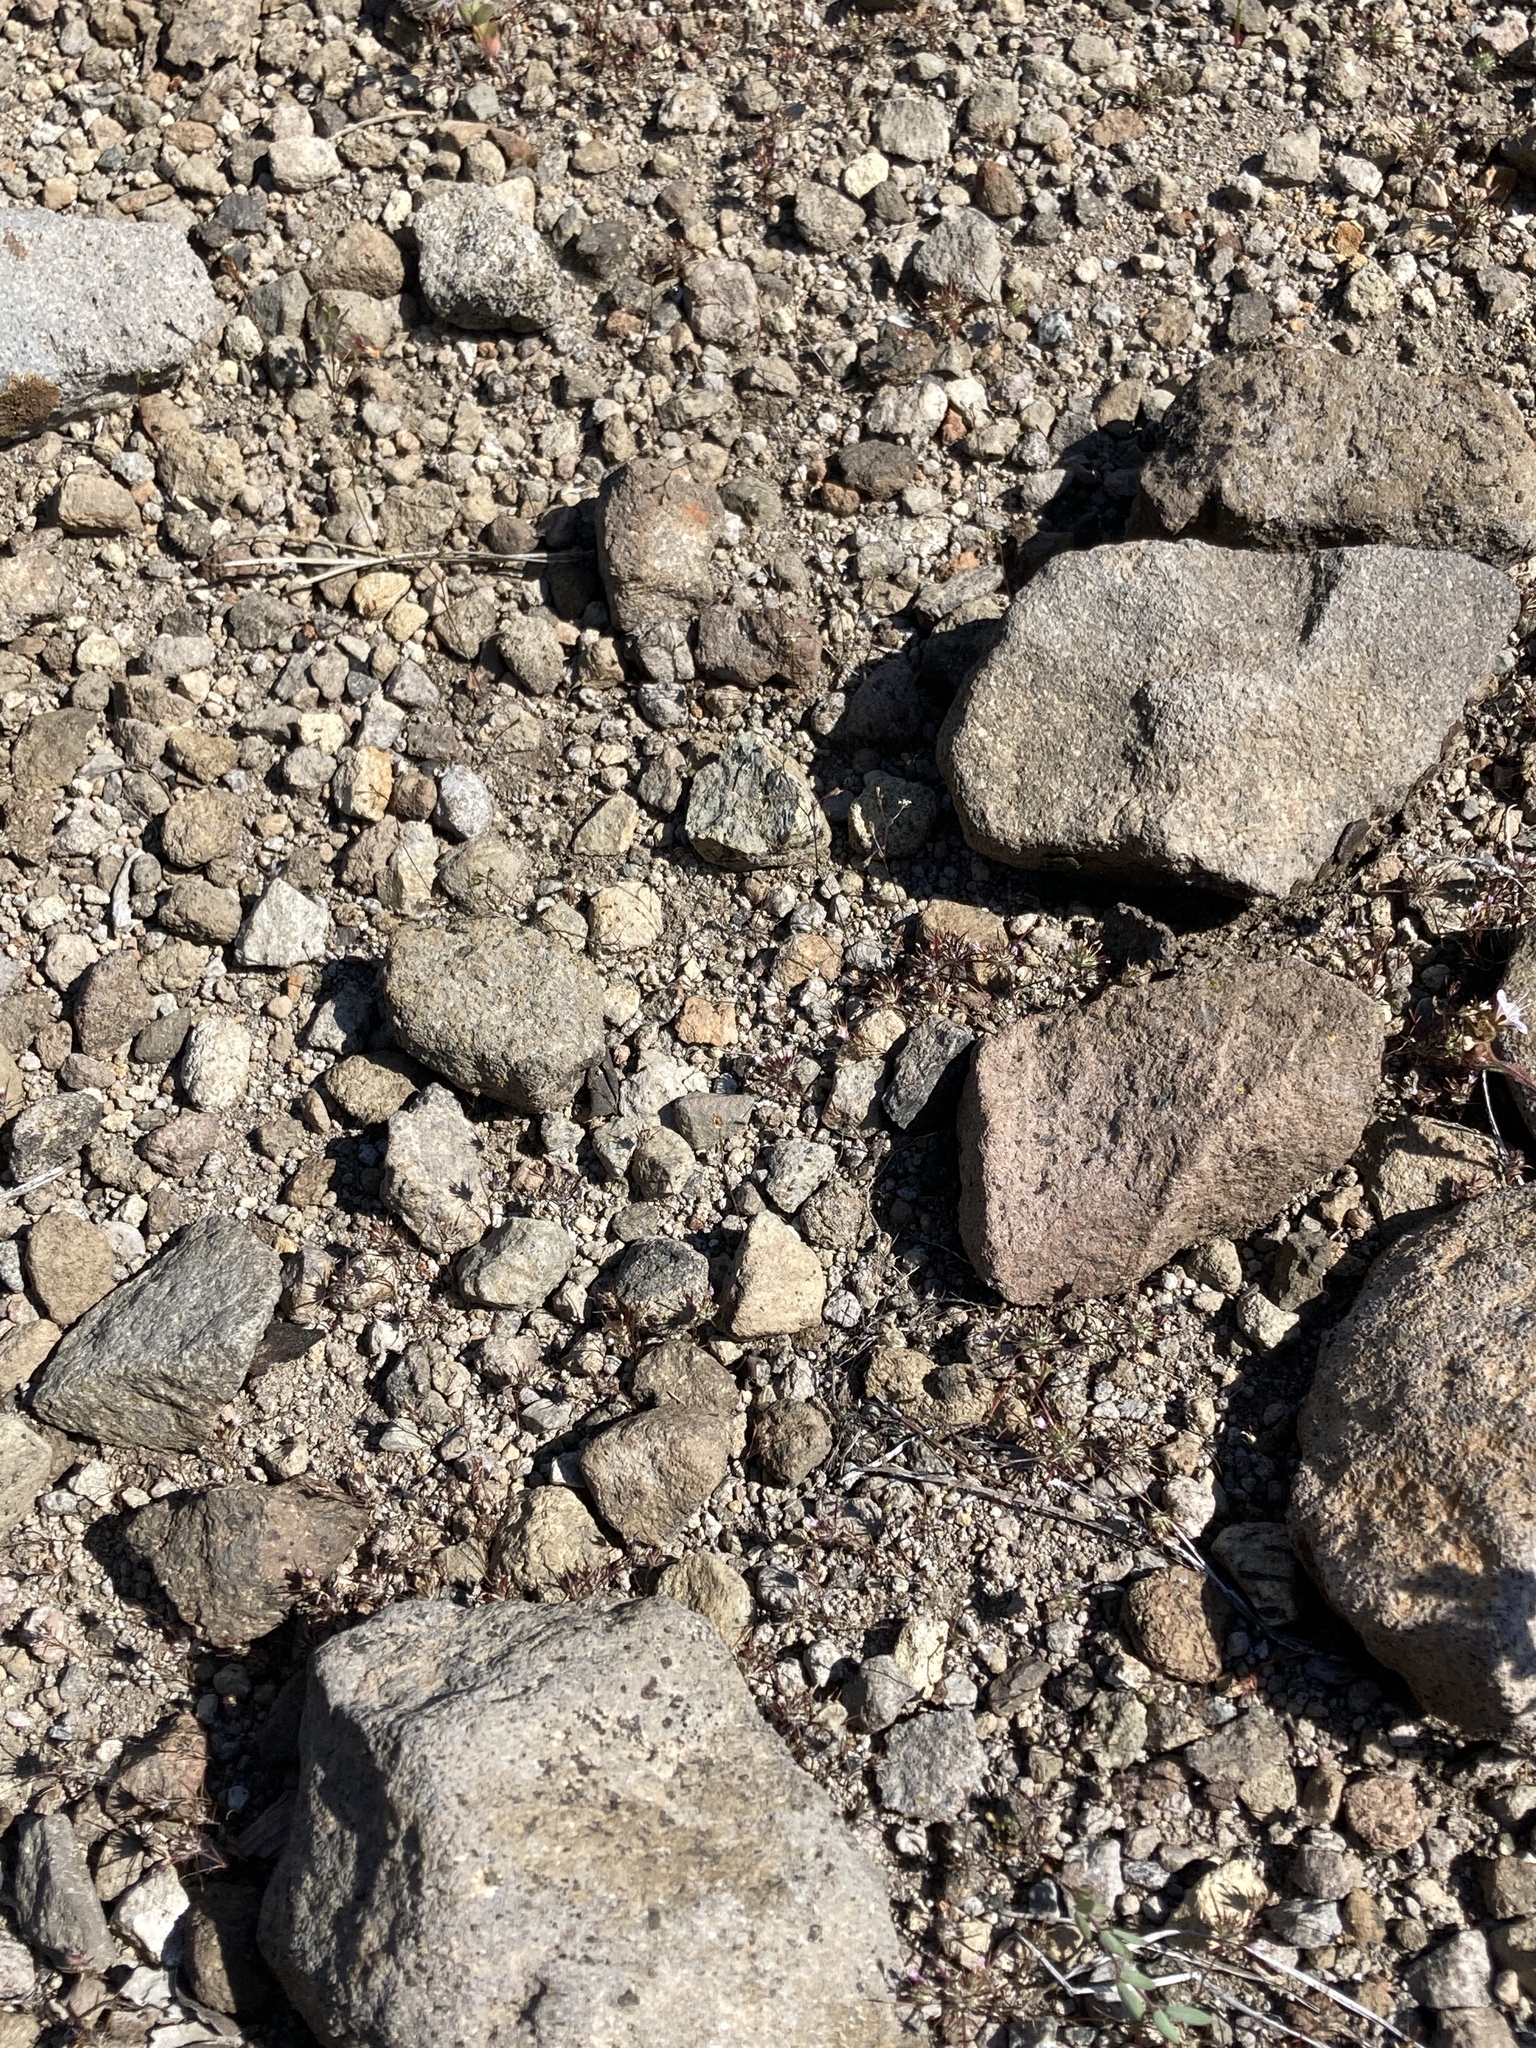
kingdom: Plantae
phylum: Tracheophyta
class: Magnoliopsida
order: Asterales
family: Campanulaceae
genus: Nemacladus
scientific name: Nemacladus capillaris
